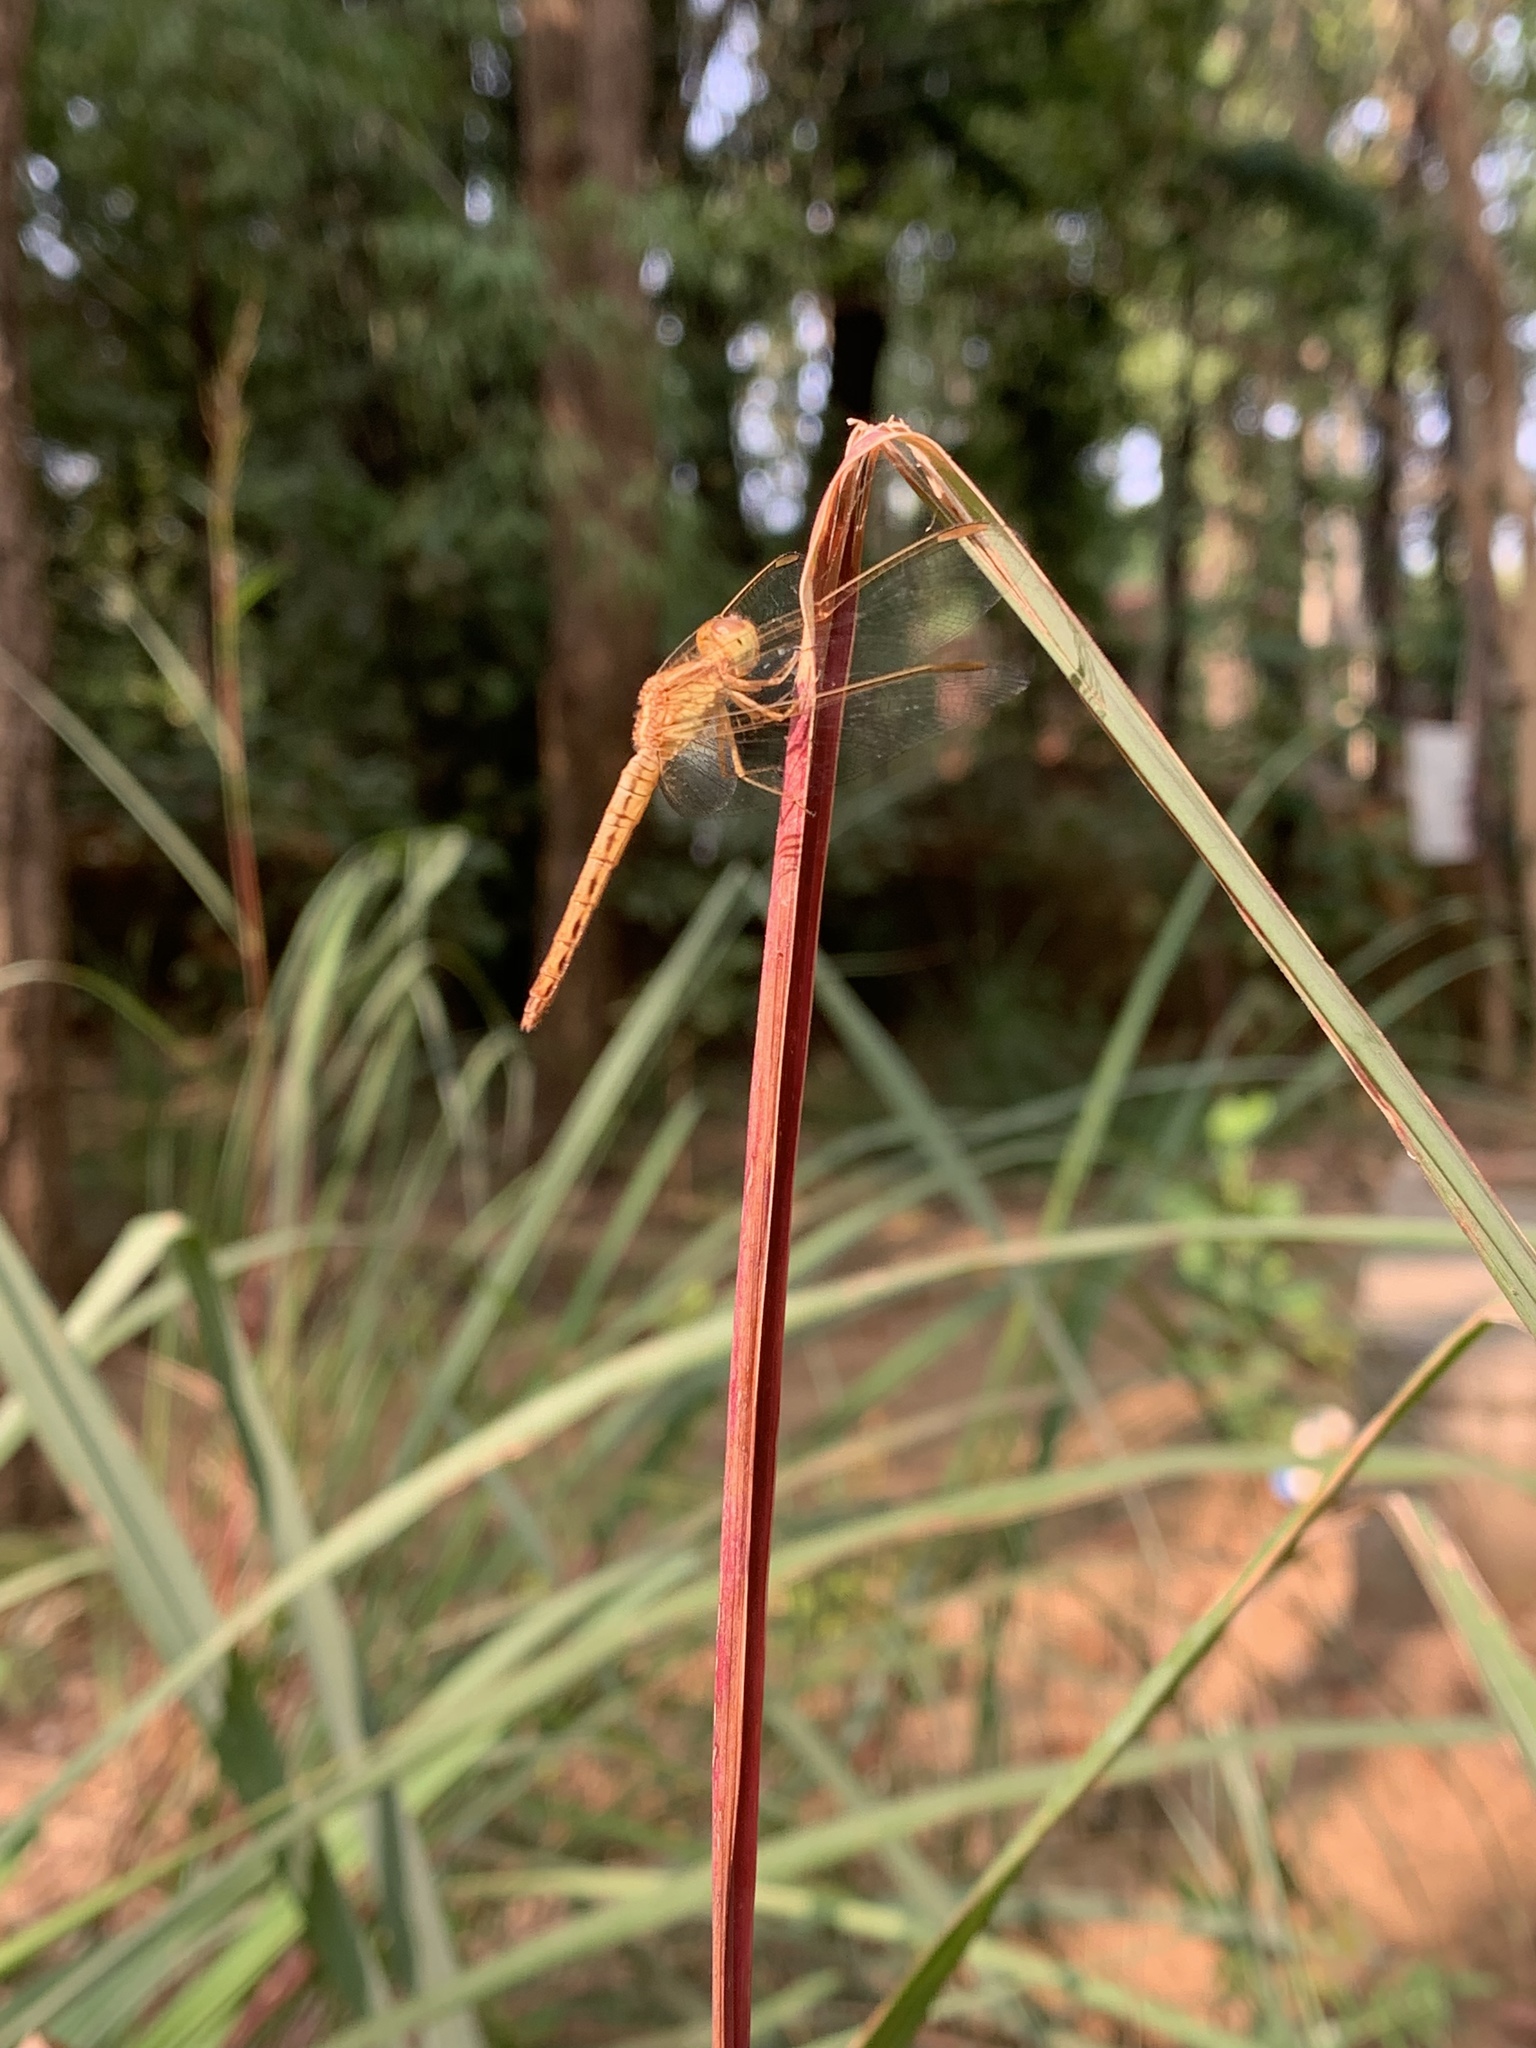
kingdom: Animalia
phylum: Arthropoda
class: Insecta
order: Odonata
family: Libellulidae
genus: Neurothemis
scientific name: Neurothemis intermedia
